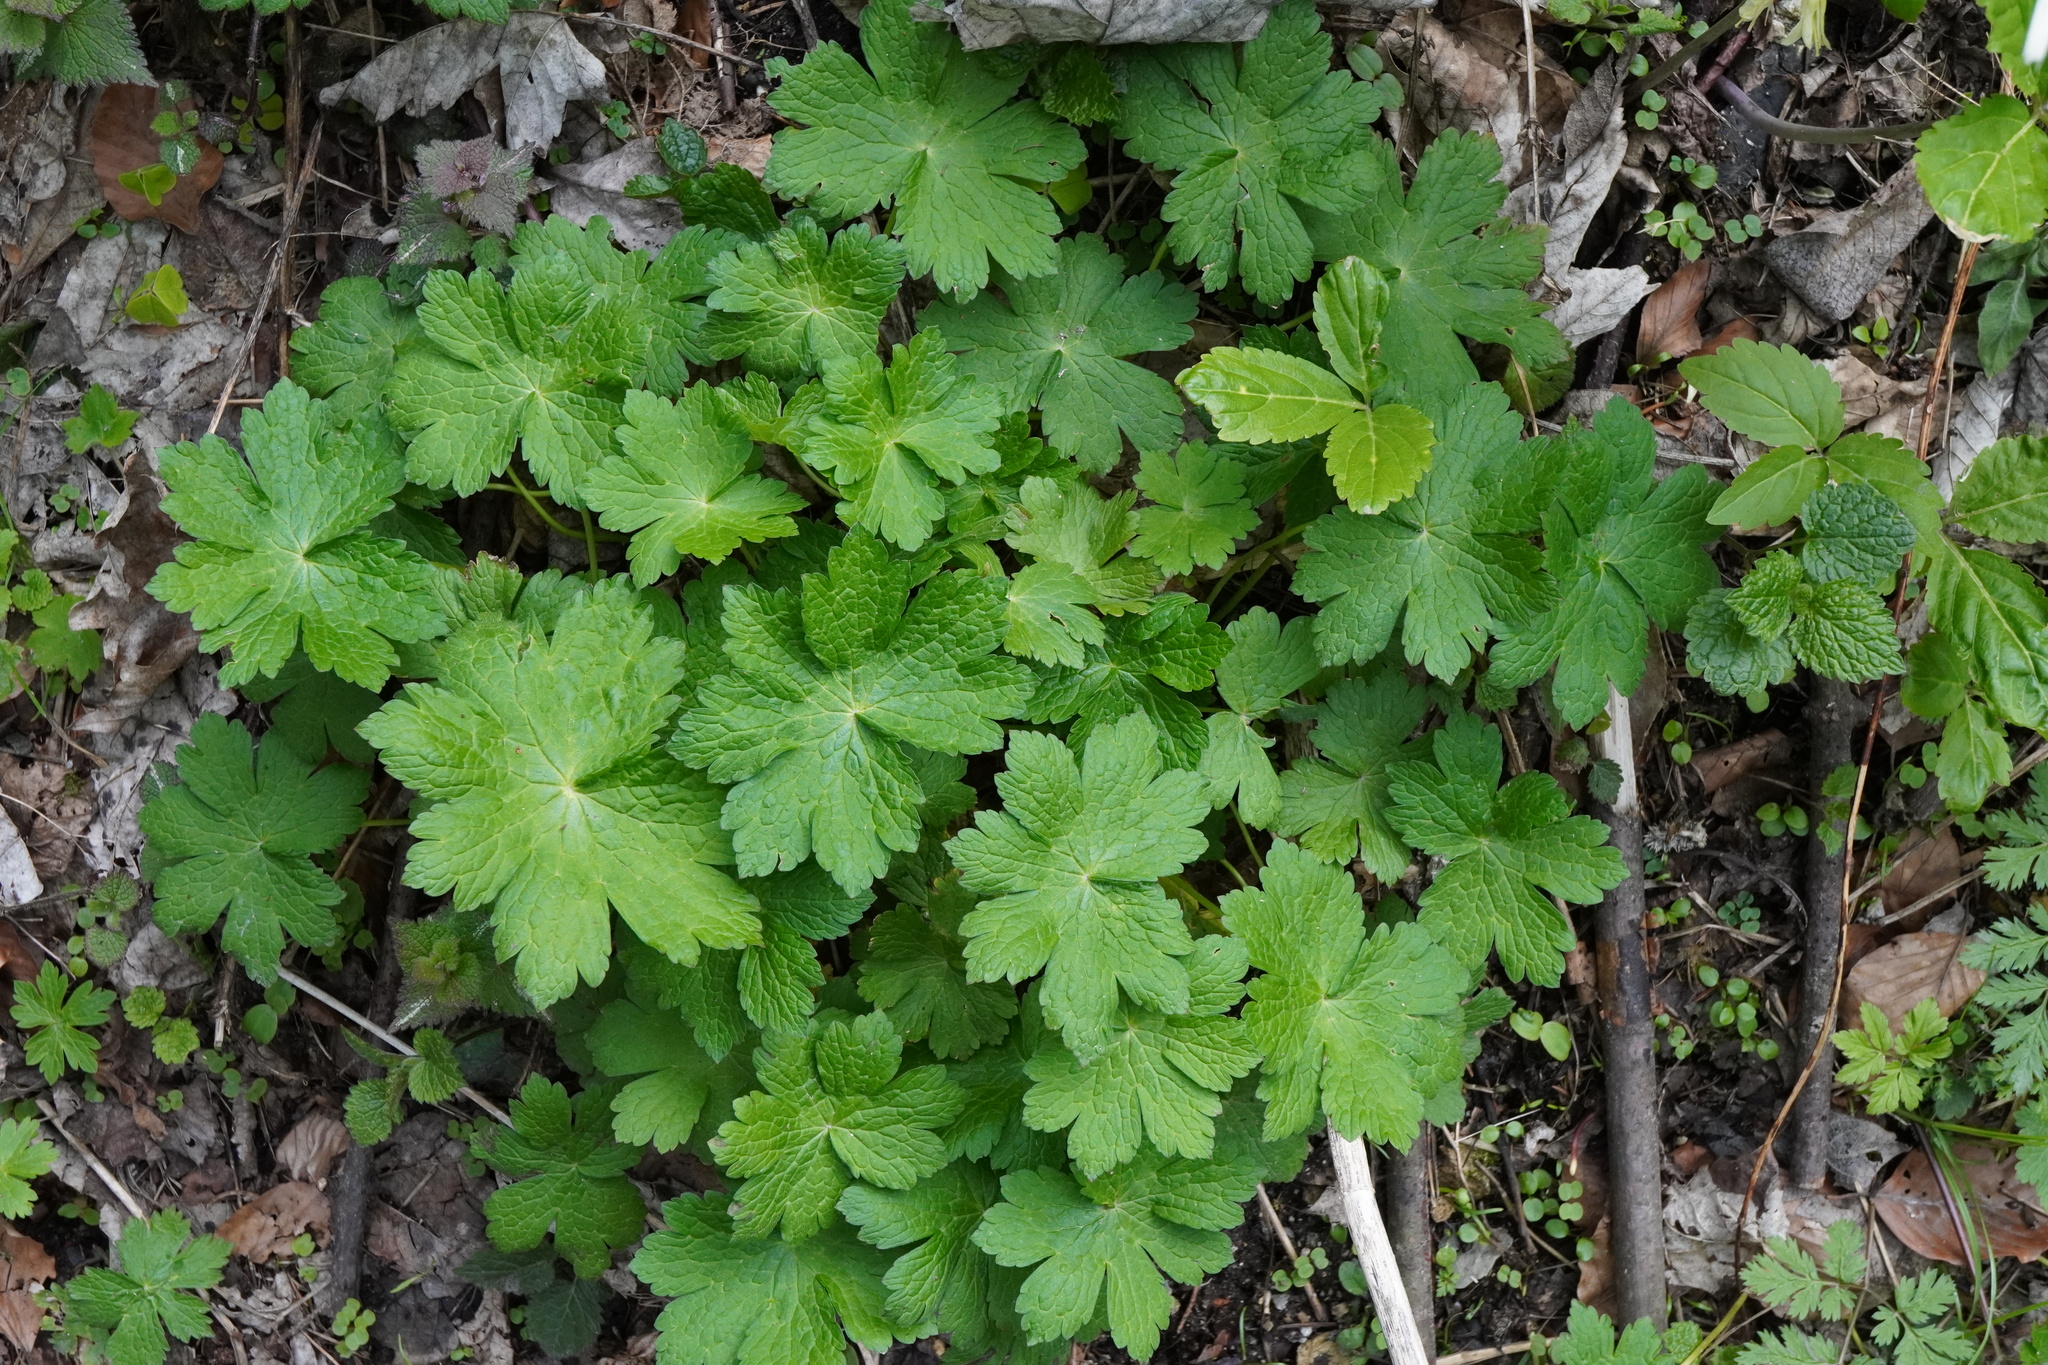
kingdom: Plantae
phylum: Tracheophyta
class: Magnoliopsida
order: Geraniales
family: Geraniaceae
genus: Geranium
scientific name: Geranium phaeum
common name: Dusky crane's-bill
